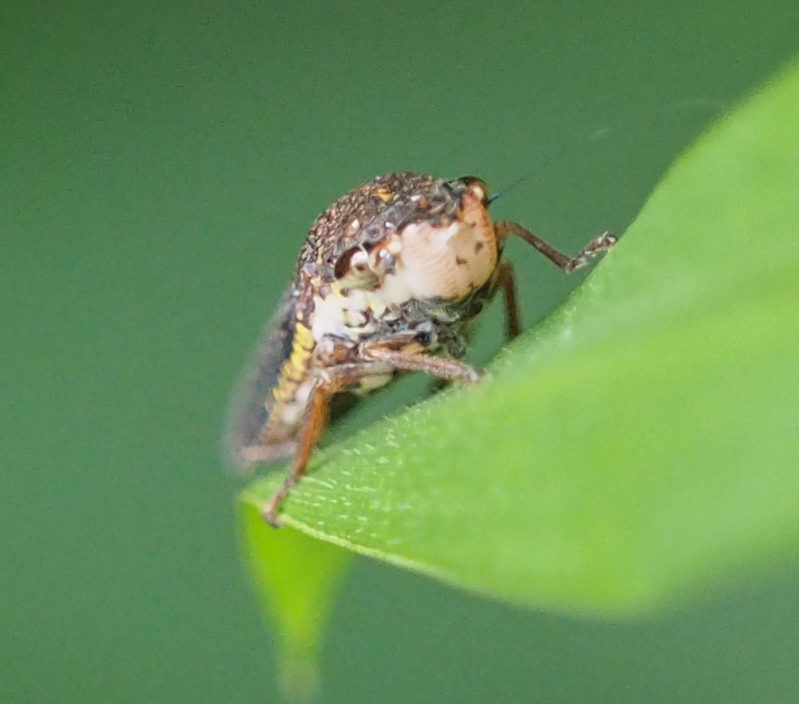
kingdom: Animalia
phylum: Arthropoda
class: Insecta
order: Hemiptera
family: Cicadellidae
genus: Paraulacizes
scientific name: Paraulacizes irrorata
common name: Speckled sharpshooter
